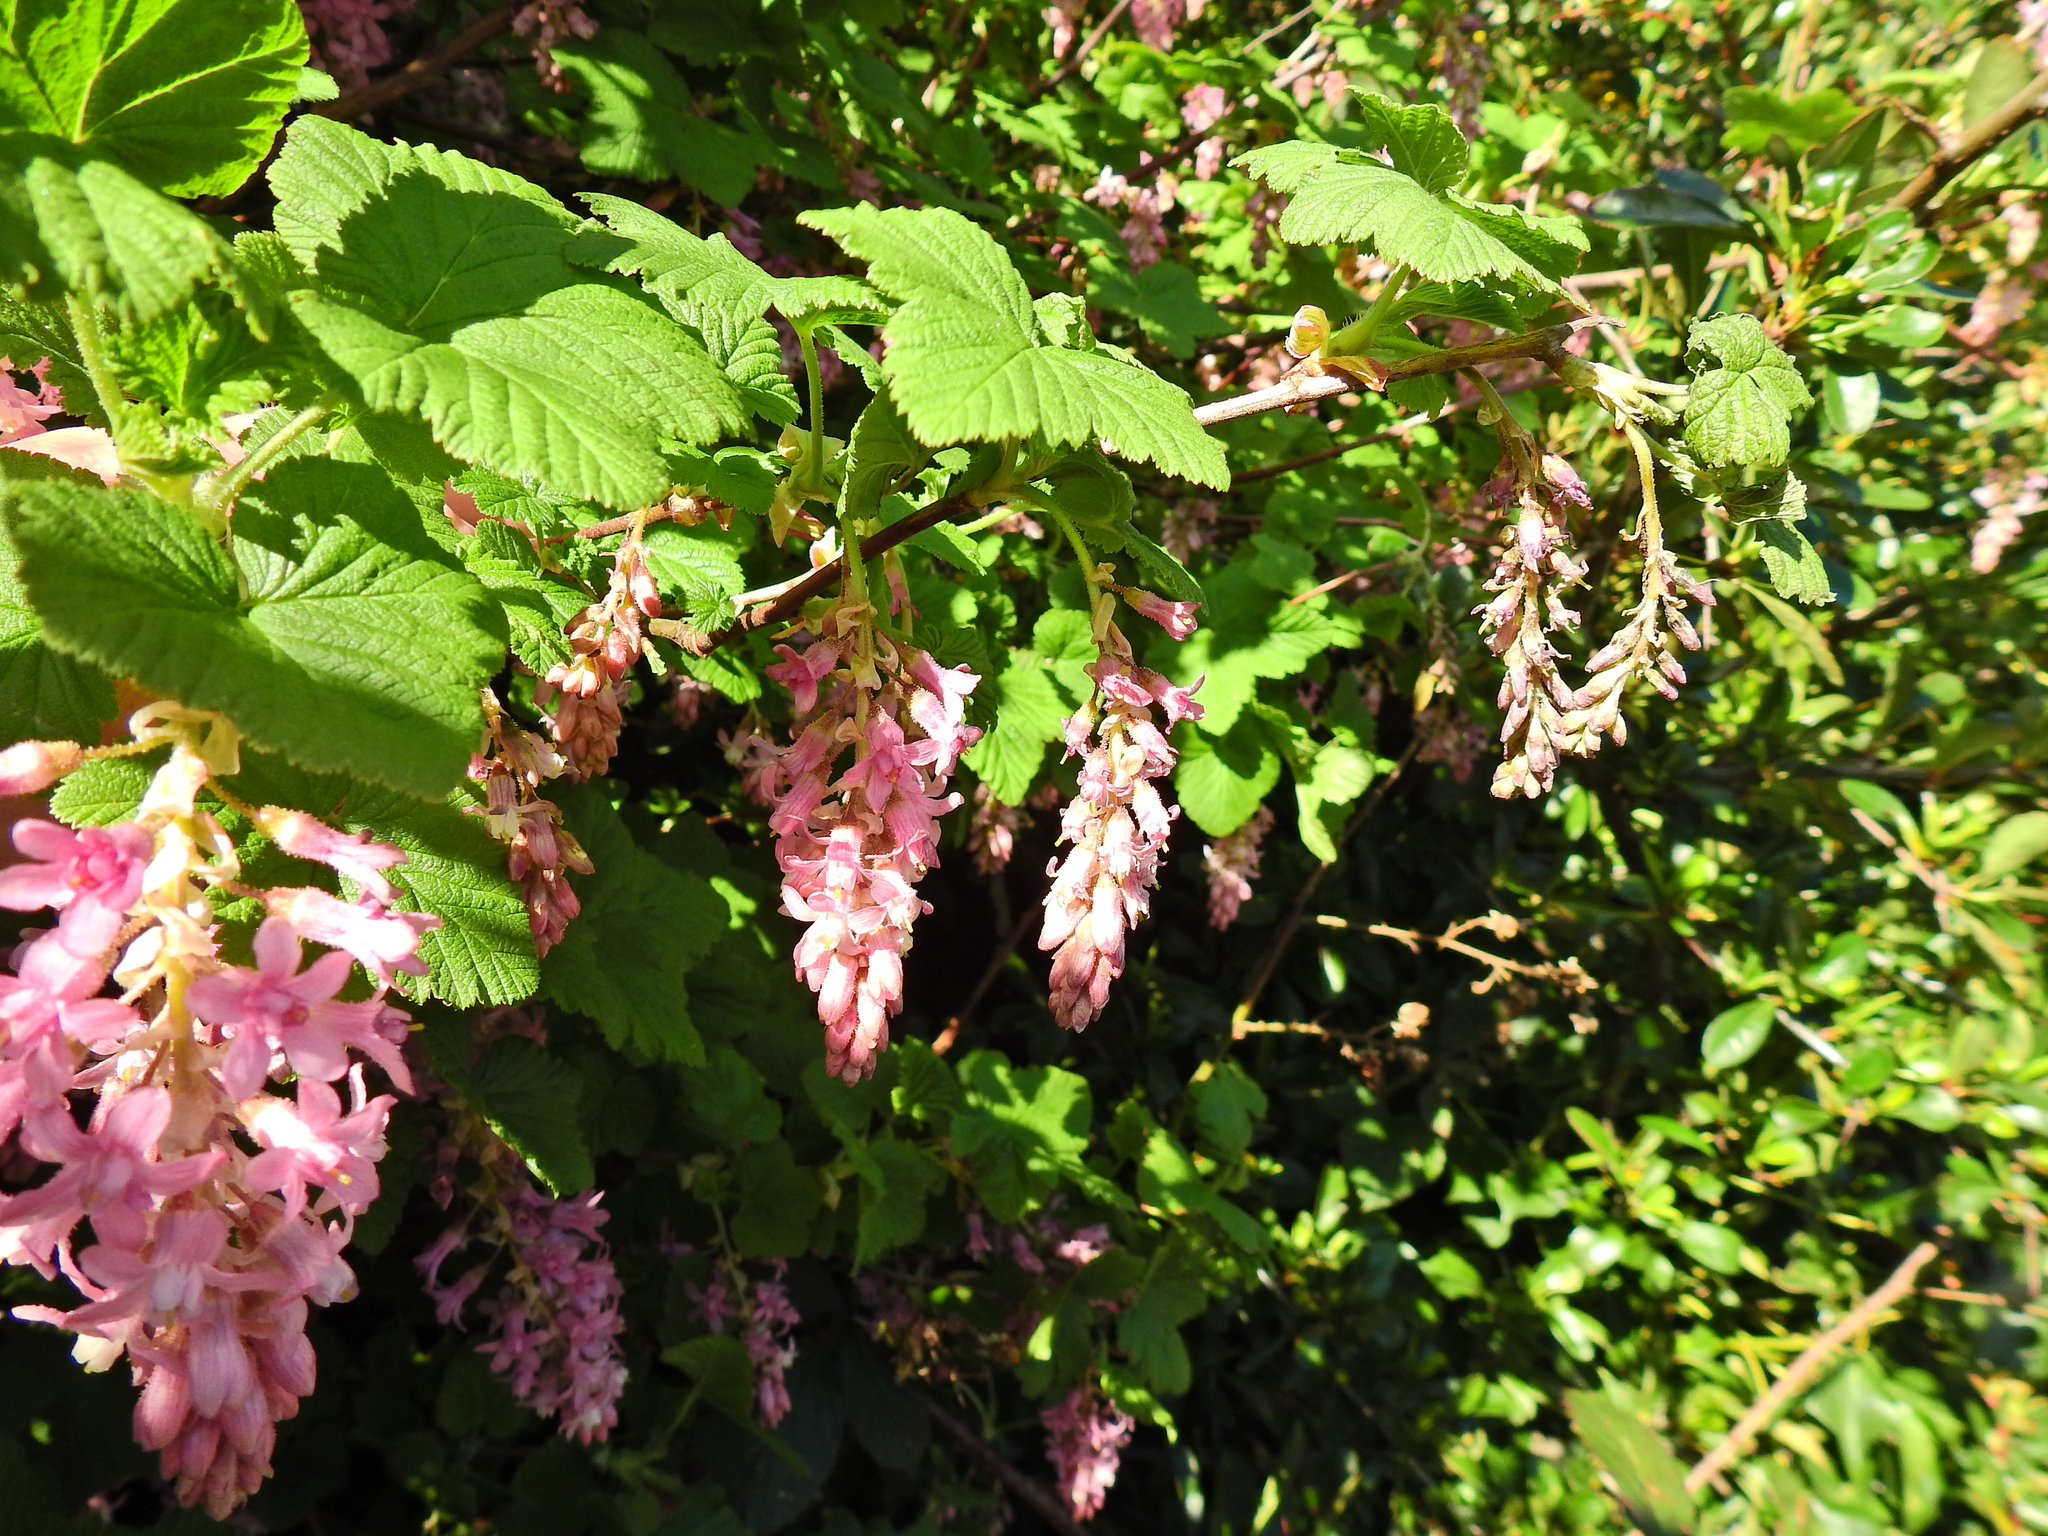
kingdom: Plantae
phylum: Tracheophyta
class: Magnoliopsida
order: Saxifragales
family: Grossulariaceae
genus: Ribes
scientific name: Ribes sanguineum
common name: Flowering currant
